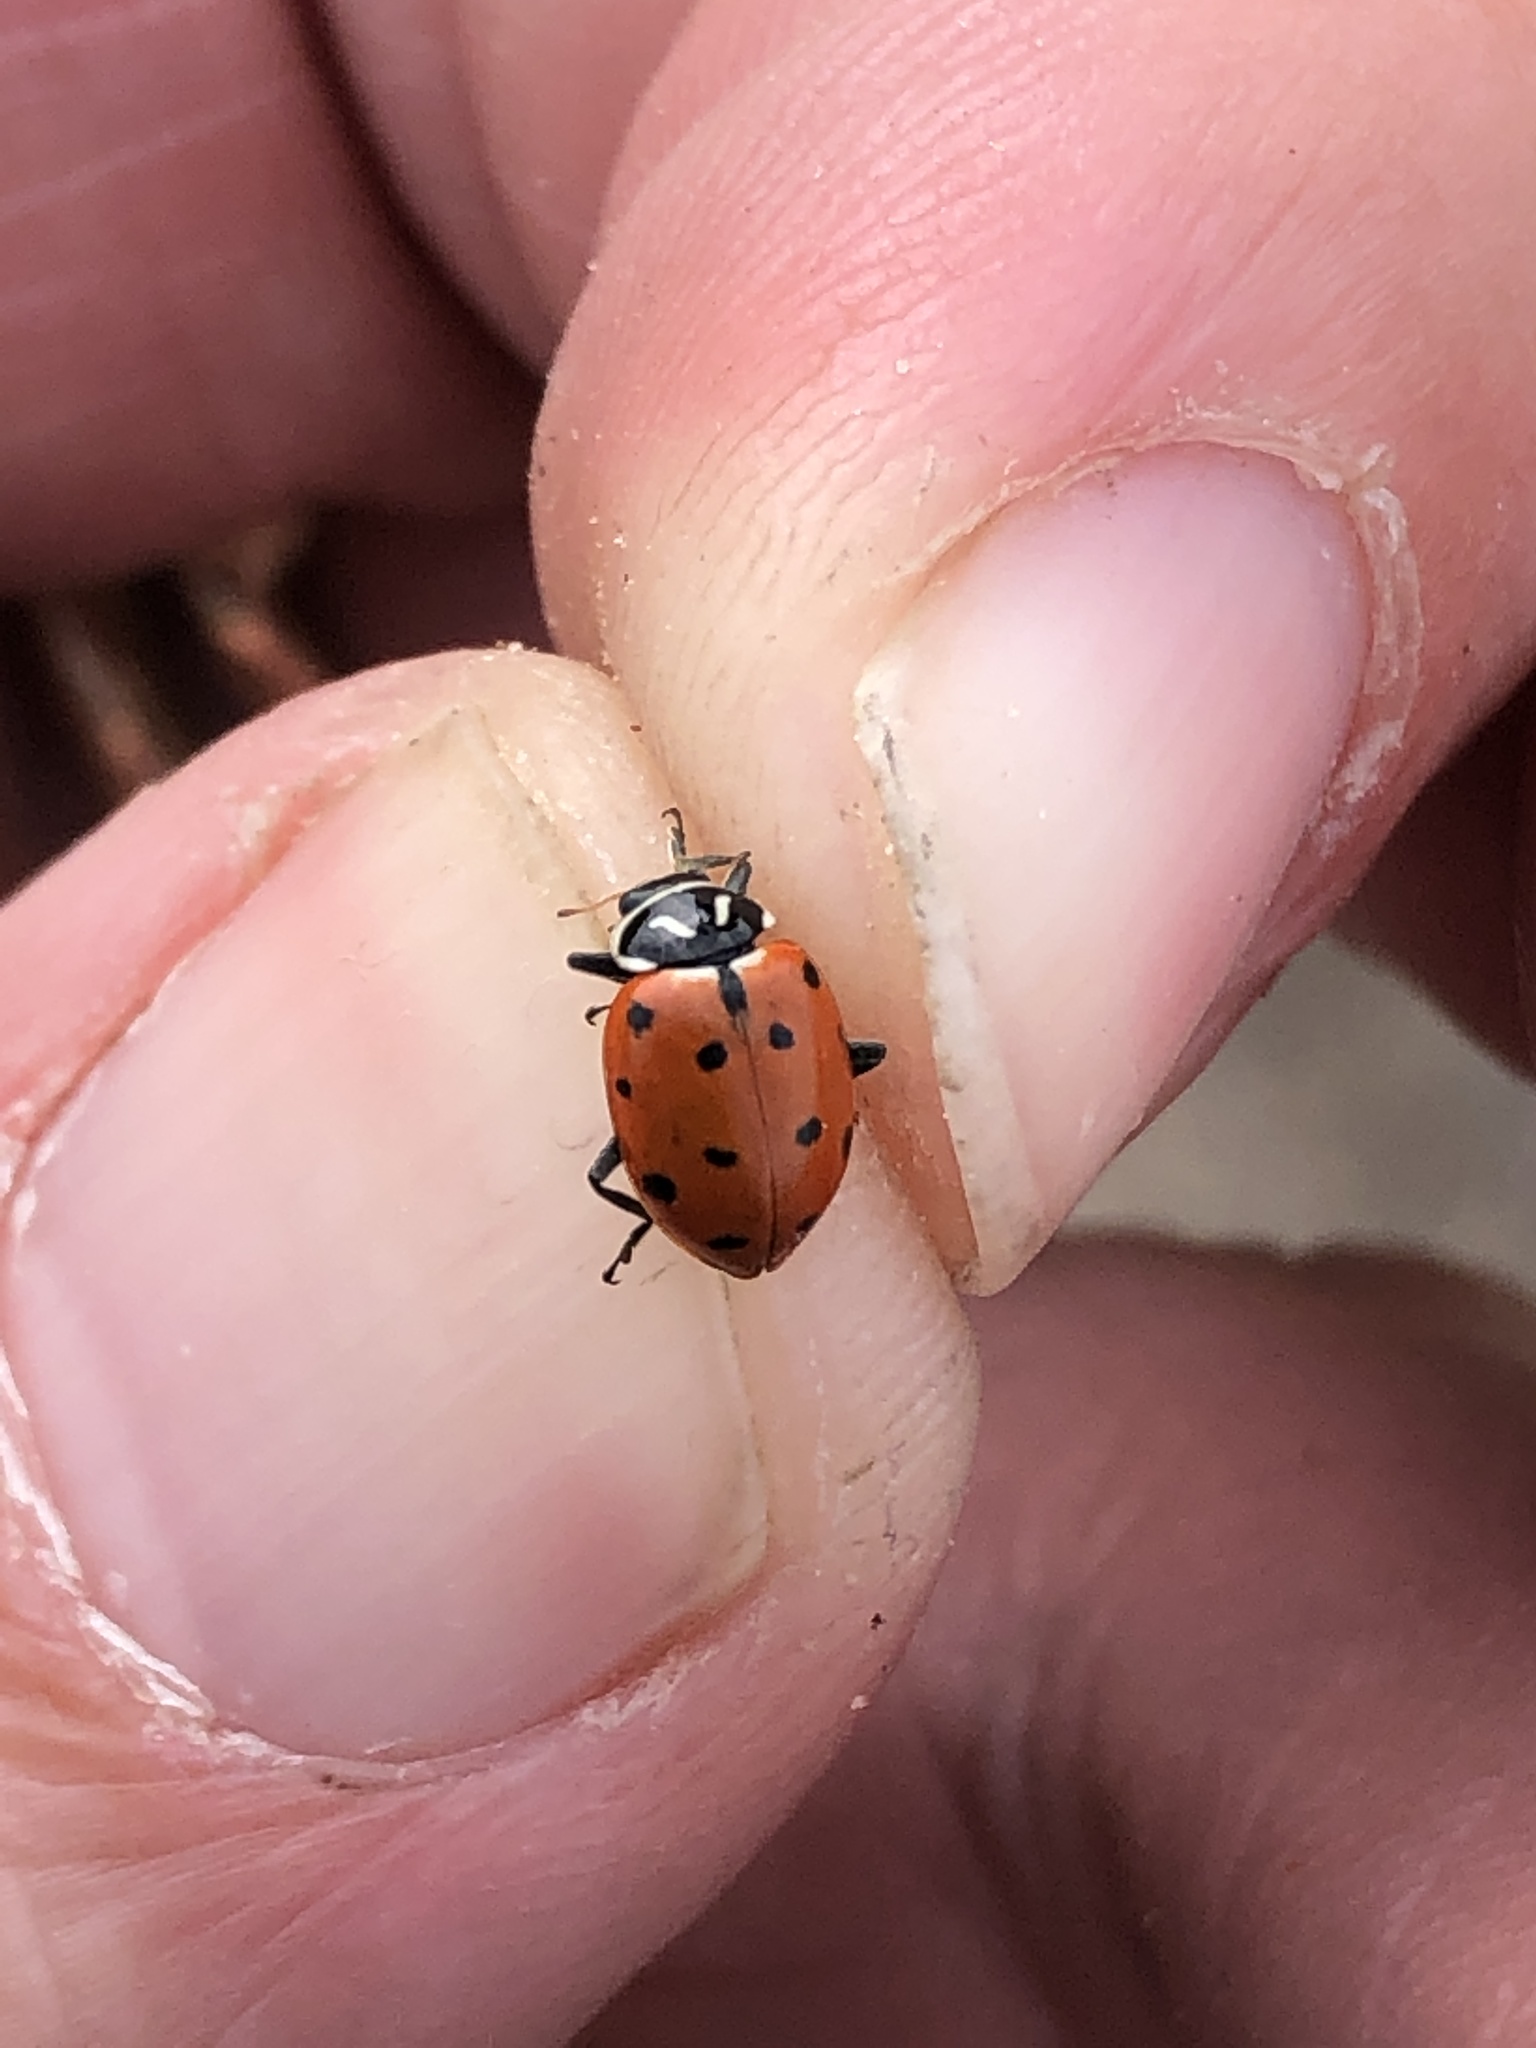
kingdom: Animalia
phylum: Arthropoda
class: Insecta
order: Coleoptera
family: Coccinellidae
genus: Hippodamia
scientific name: Hippodamia convergens
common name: Convergent lady beetle
